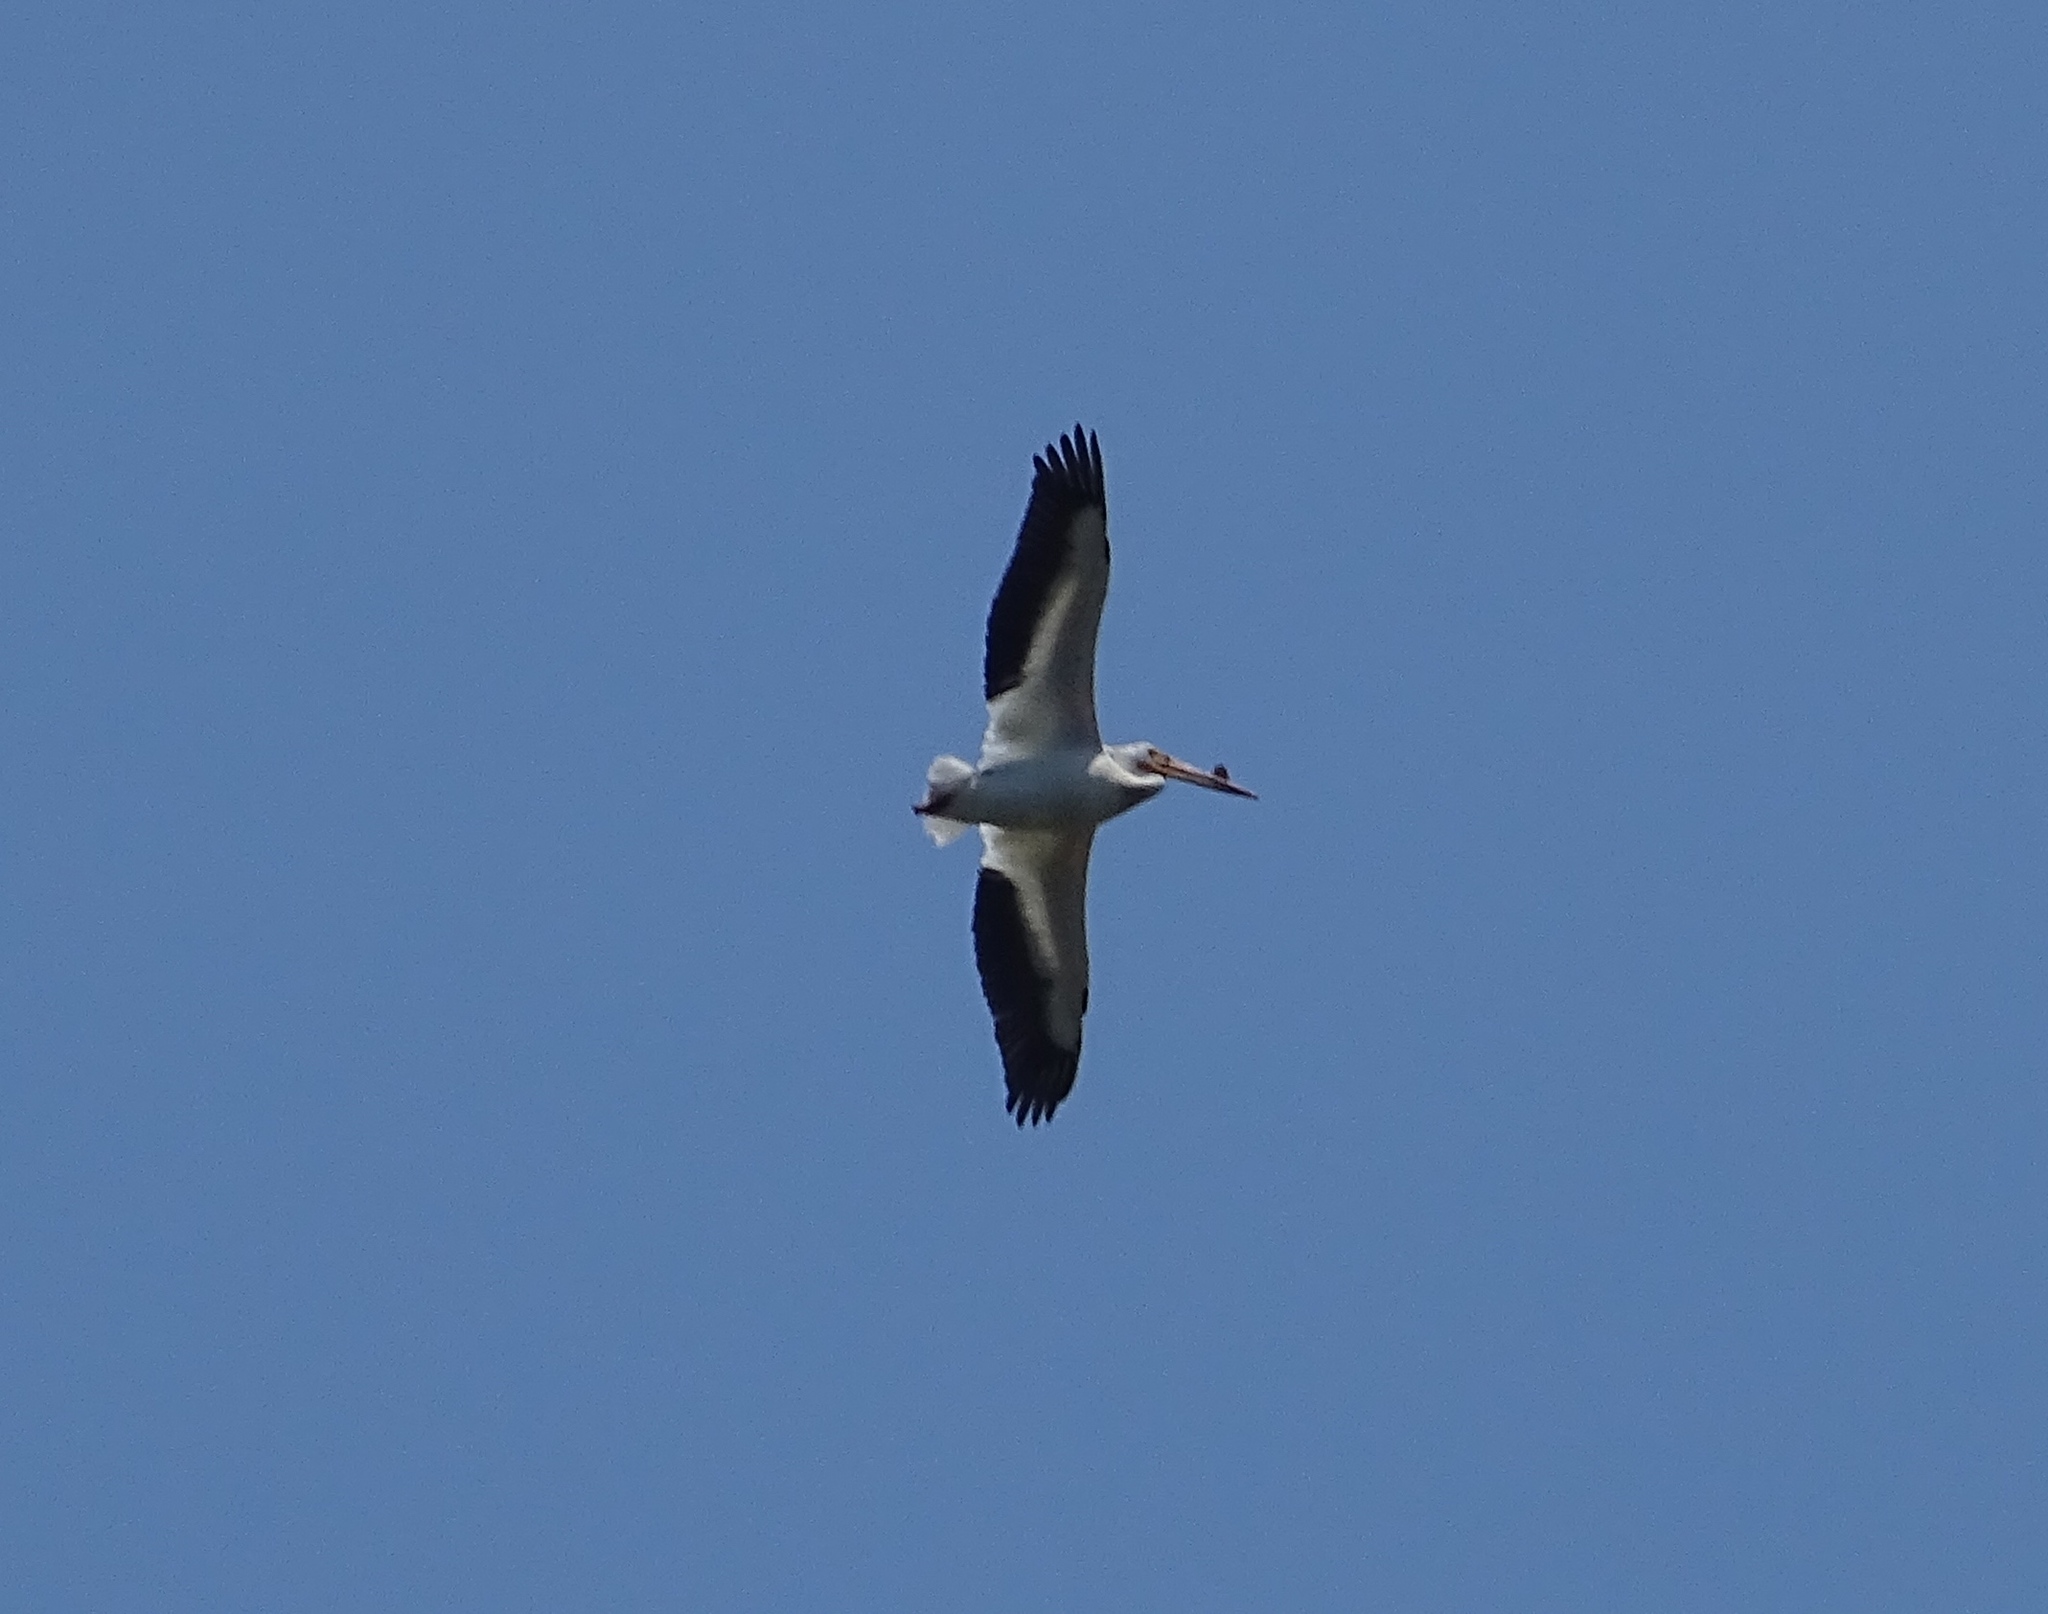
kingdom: Animalia
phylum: Chordata
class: Aves
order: Pelecaniformes
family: Pelecanidae
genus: Pelecanus
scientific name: Pelecanus erythrorhynchos
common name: American white pelican
